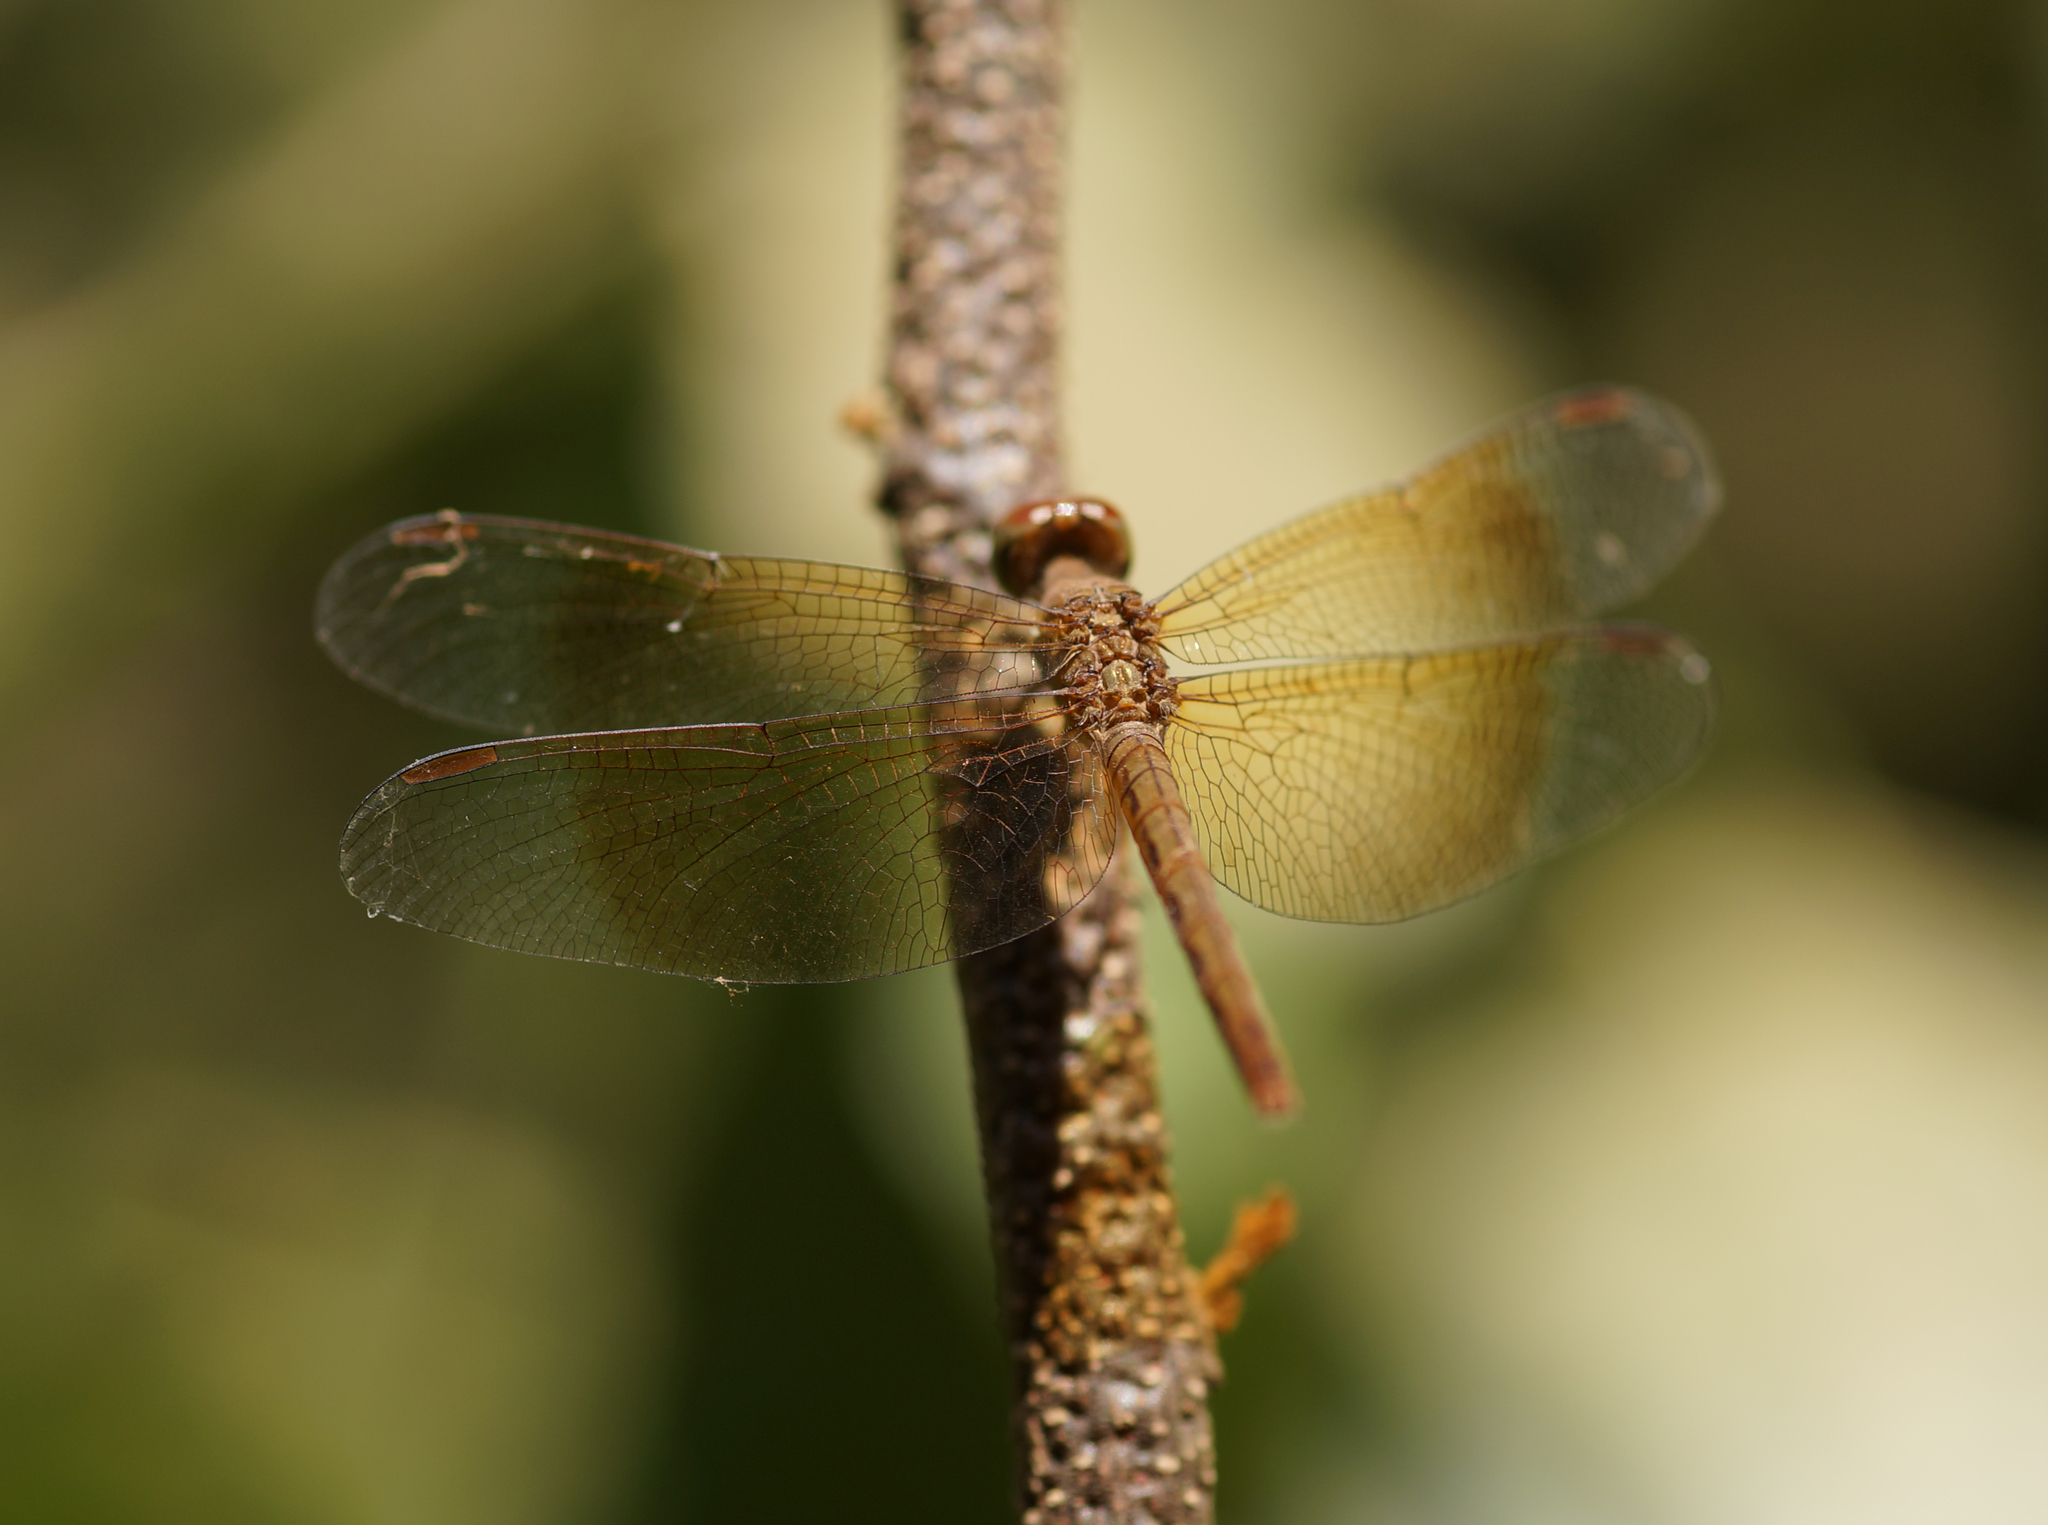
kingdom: Animalia
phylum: Arthropoda
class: Insecta
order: Odonata
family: Libellulidae
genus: Neurothemis
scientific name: Neurothemis fluctuans
